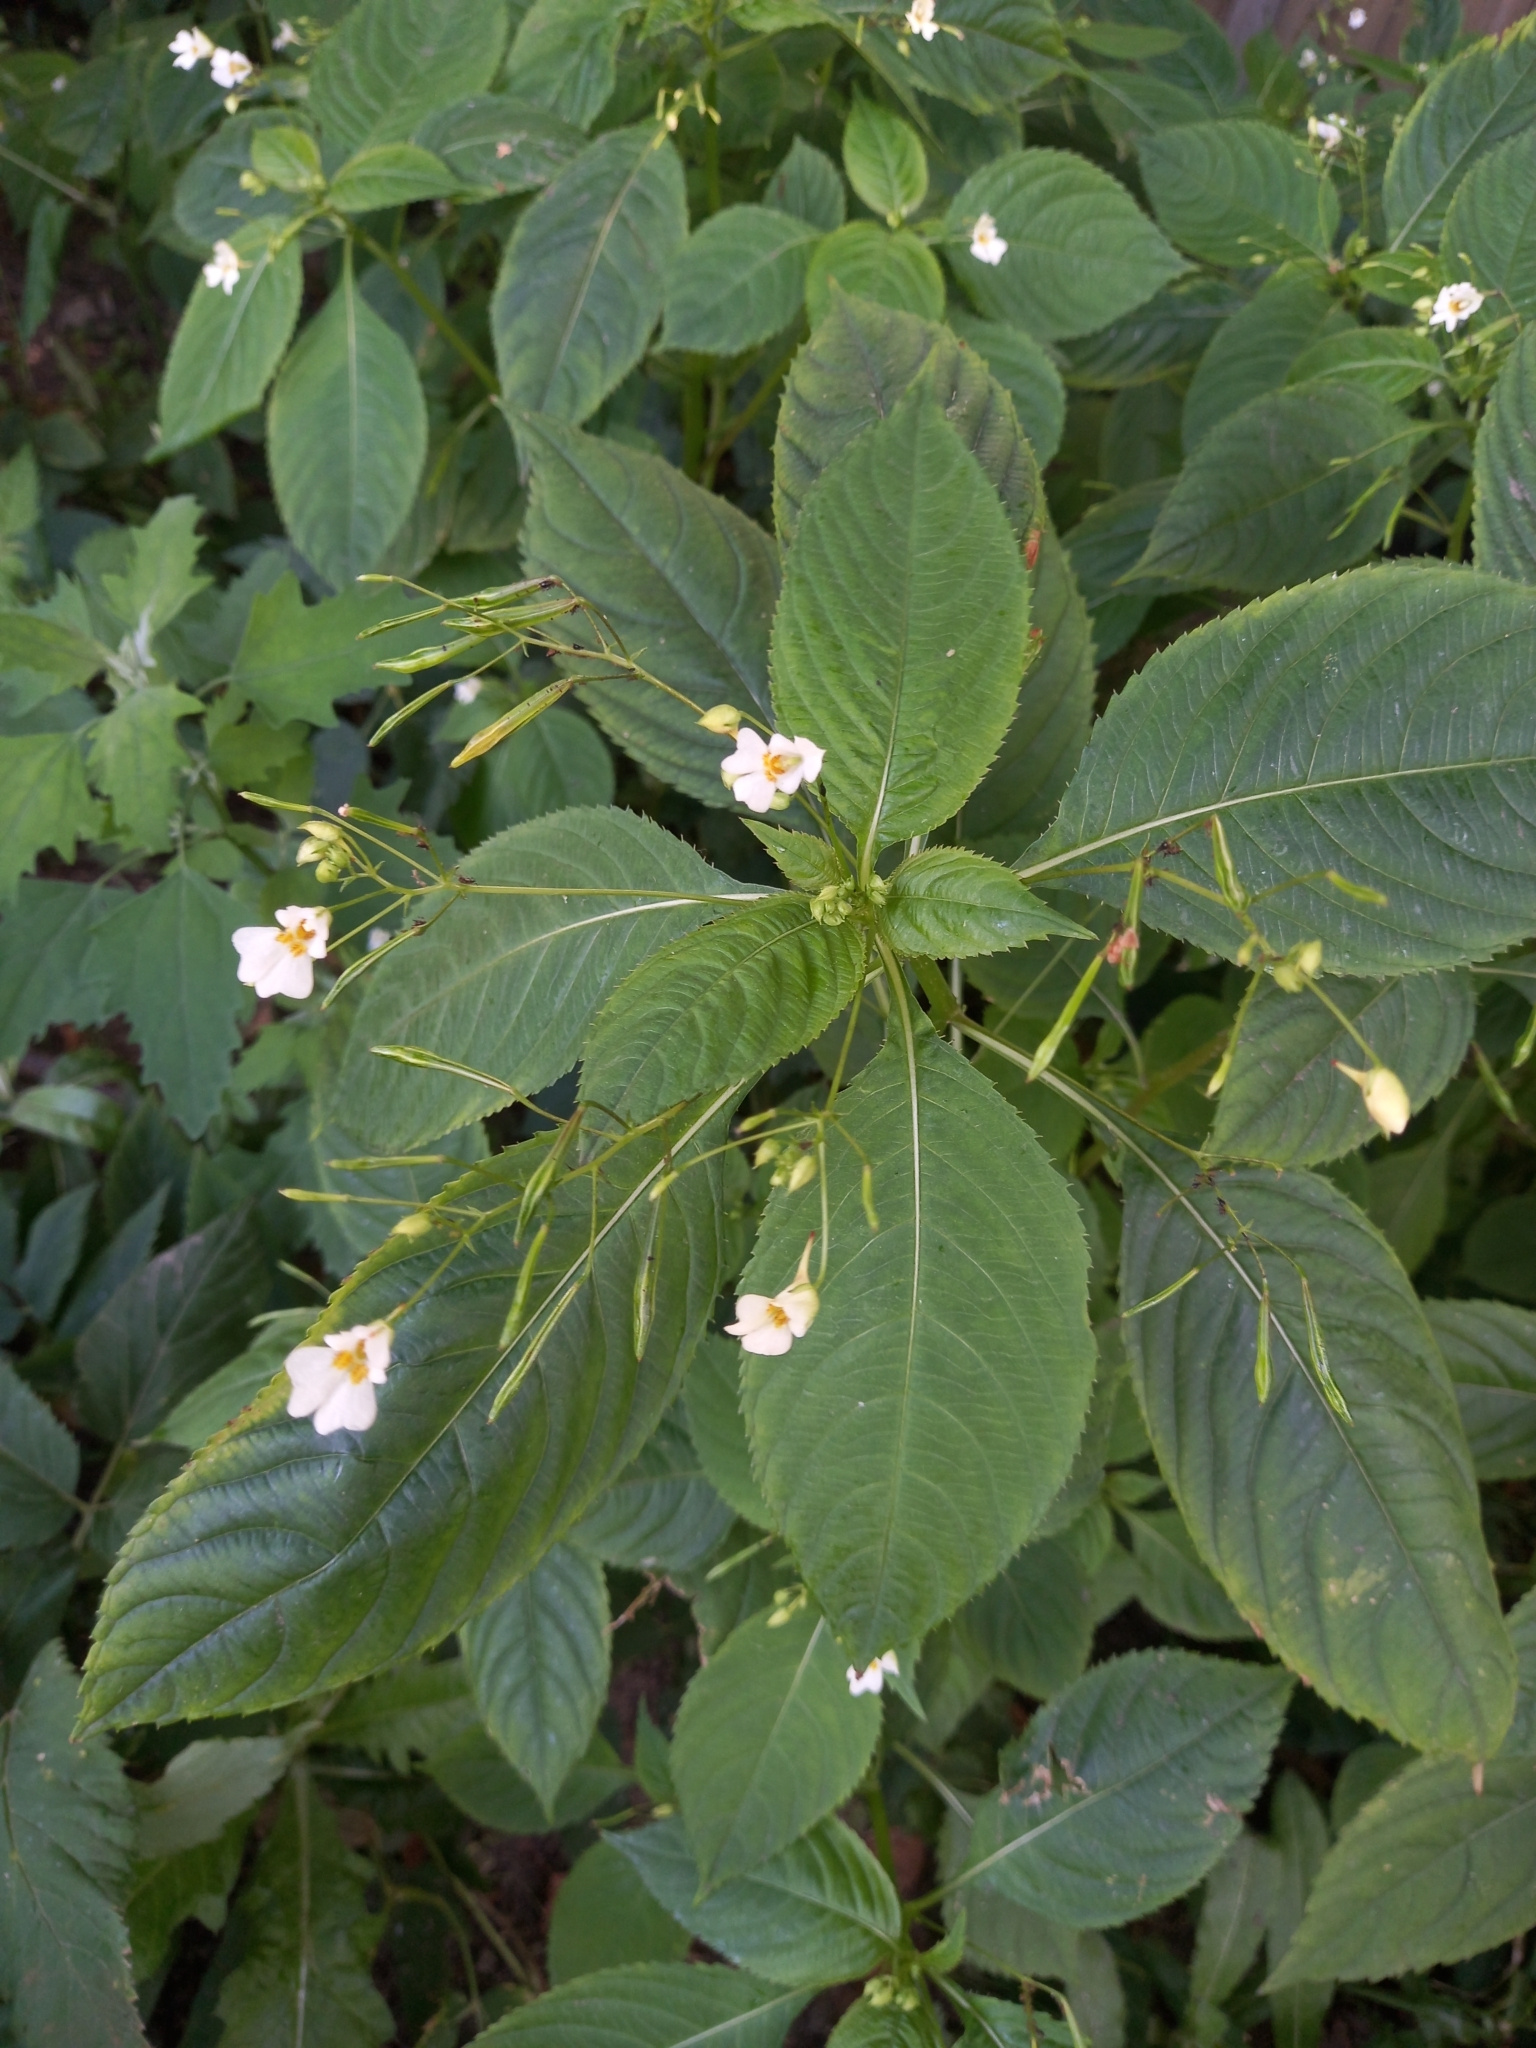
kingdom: Plantae
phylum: Tracheophyta
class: Magnoliopsida
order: Ericales
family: Balsaminaceae
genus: Impatiens
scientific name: Impatiens parviflora
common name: Small balsam
